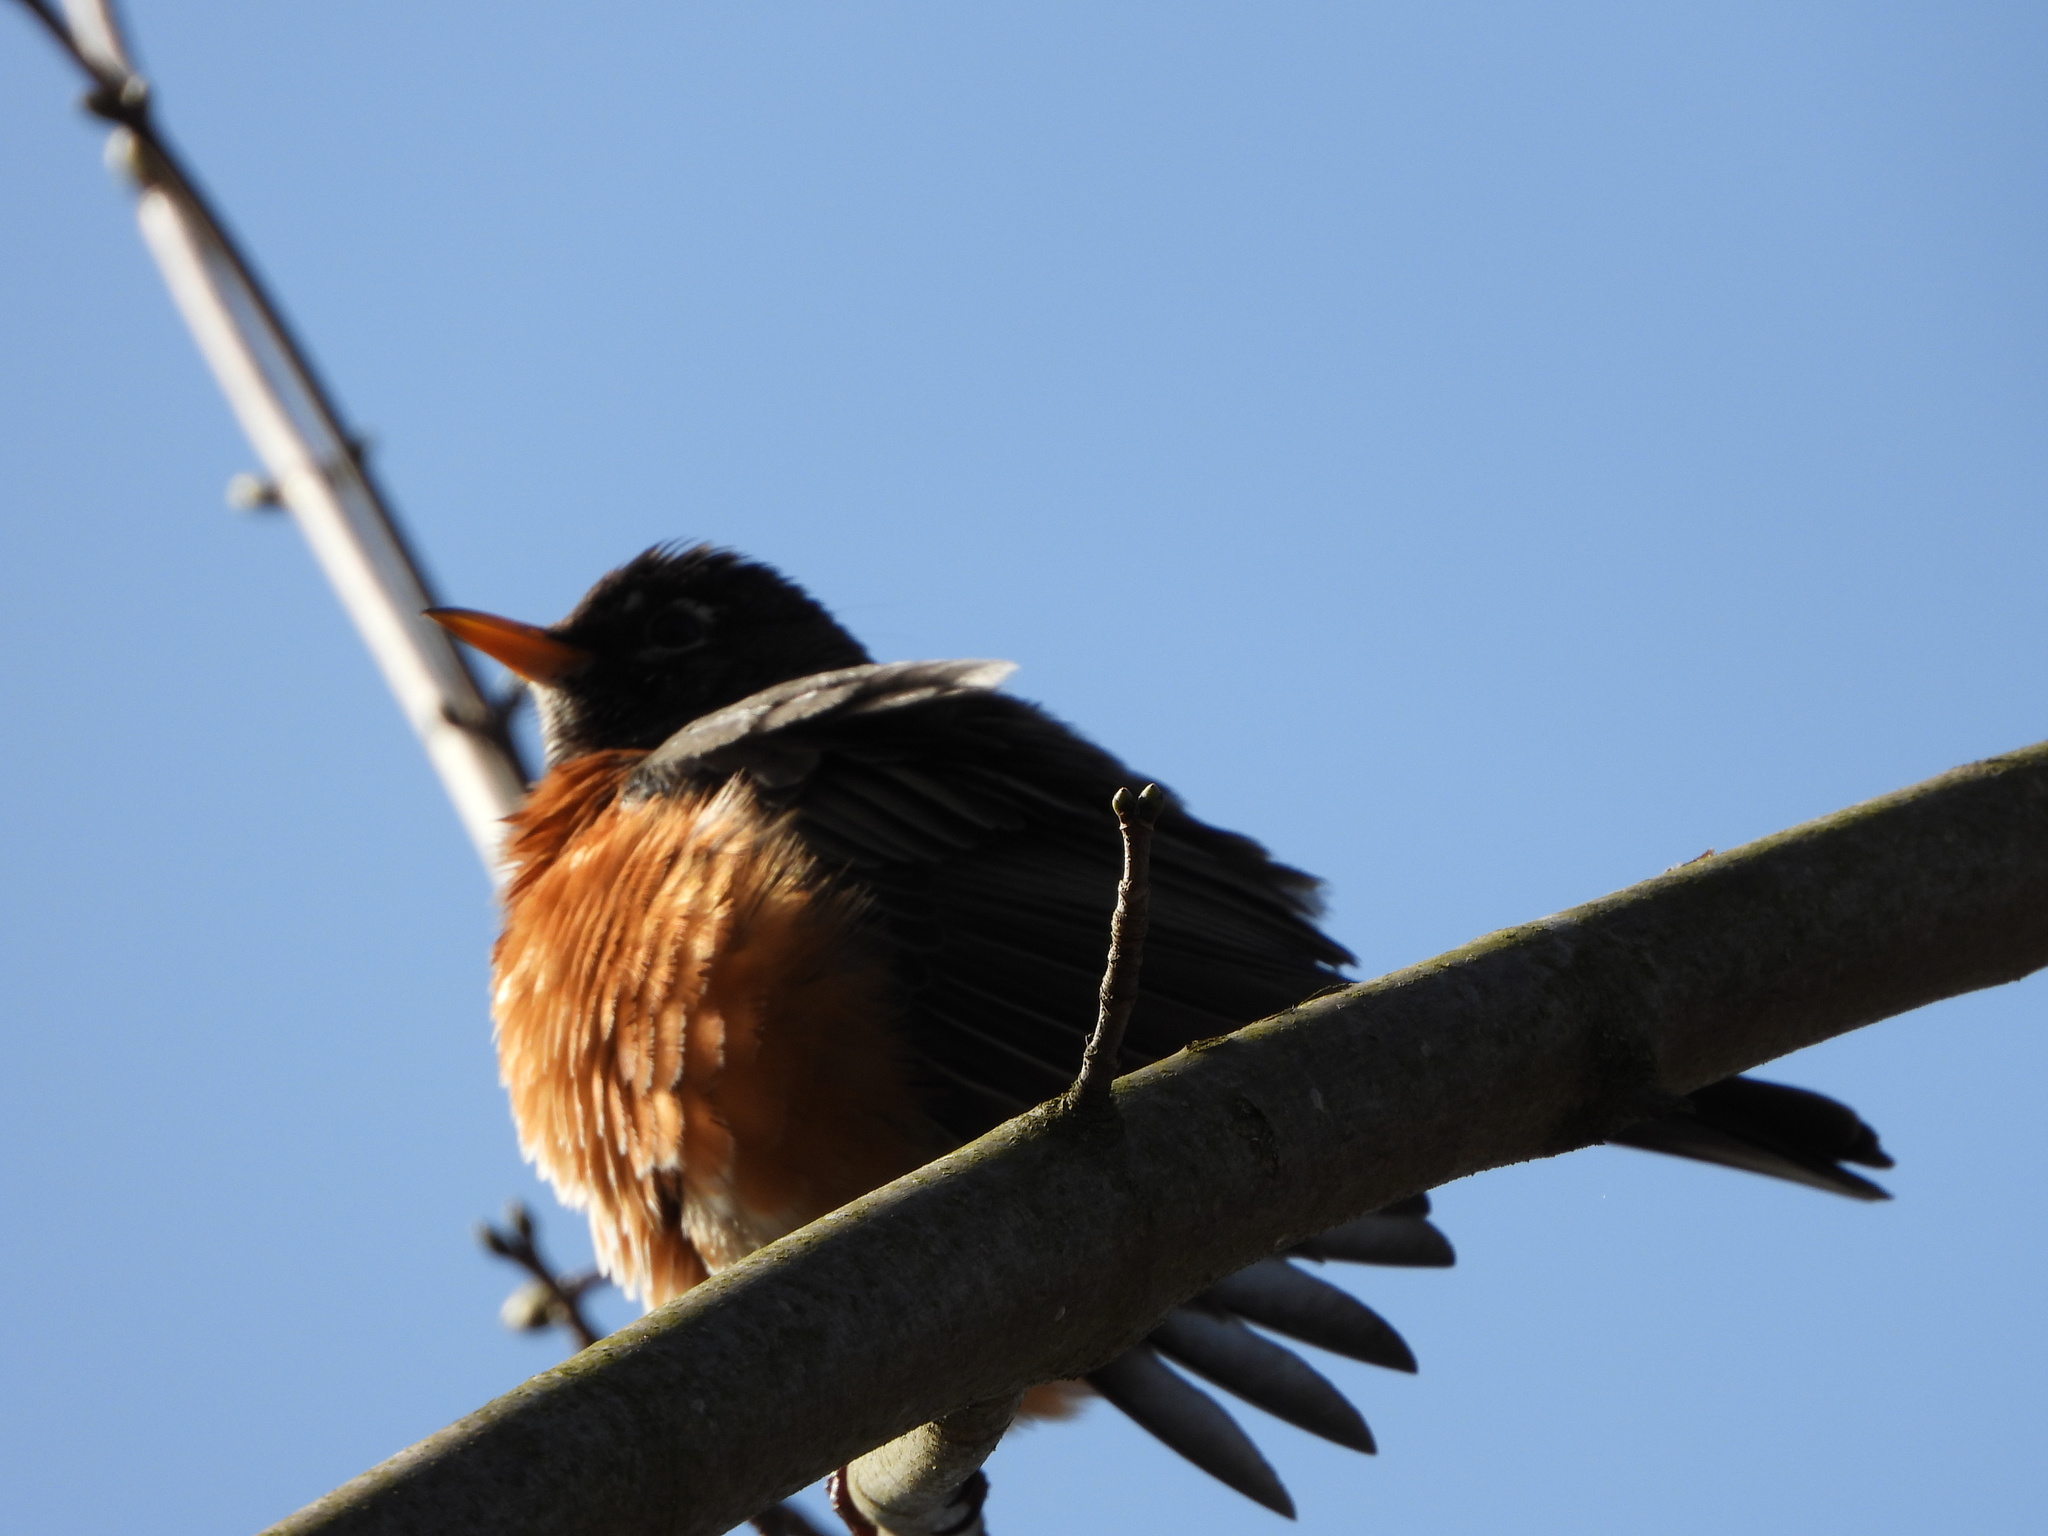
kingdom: Animalia
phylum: Chordata
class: Aves
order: Passeriformes
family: Turdidae
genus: Turdus
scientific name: Turdus migratorius
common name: American robin
